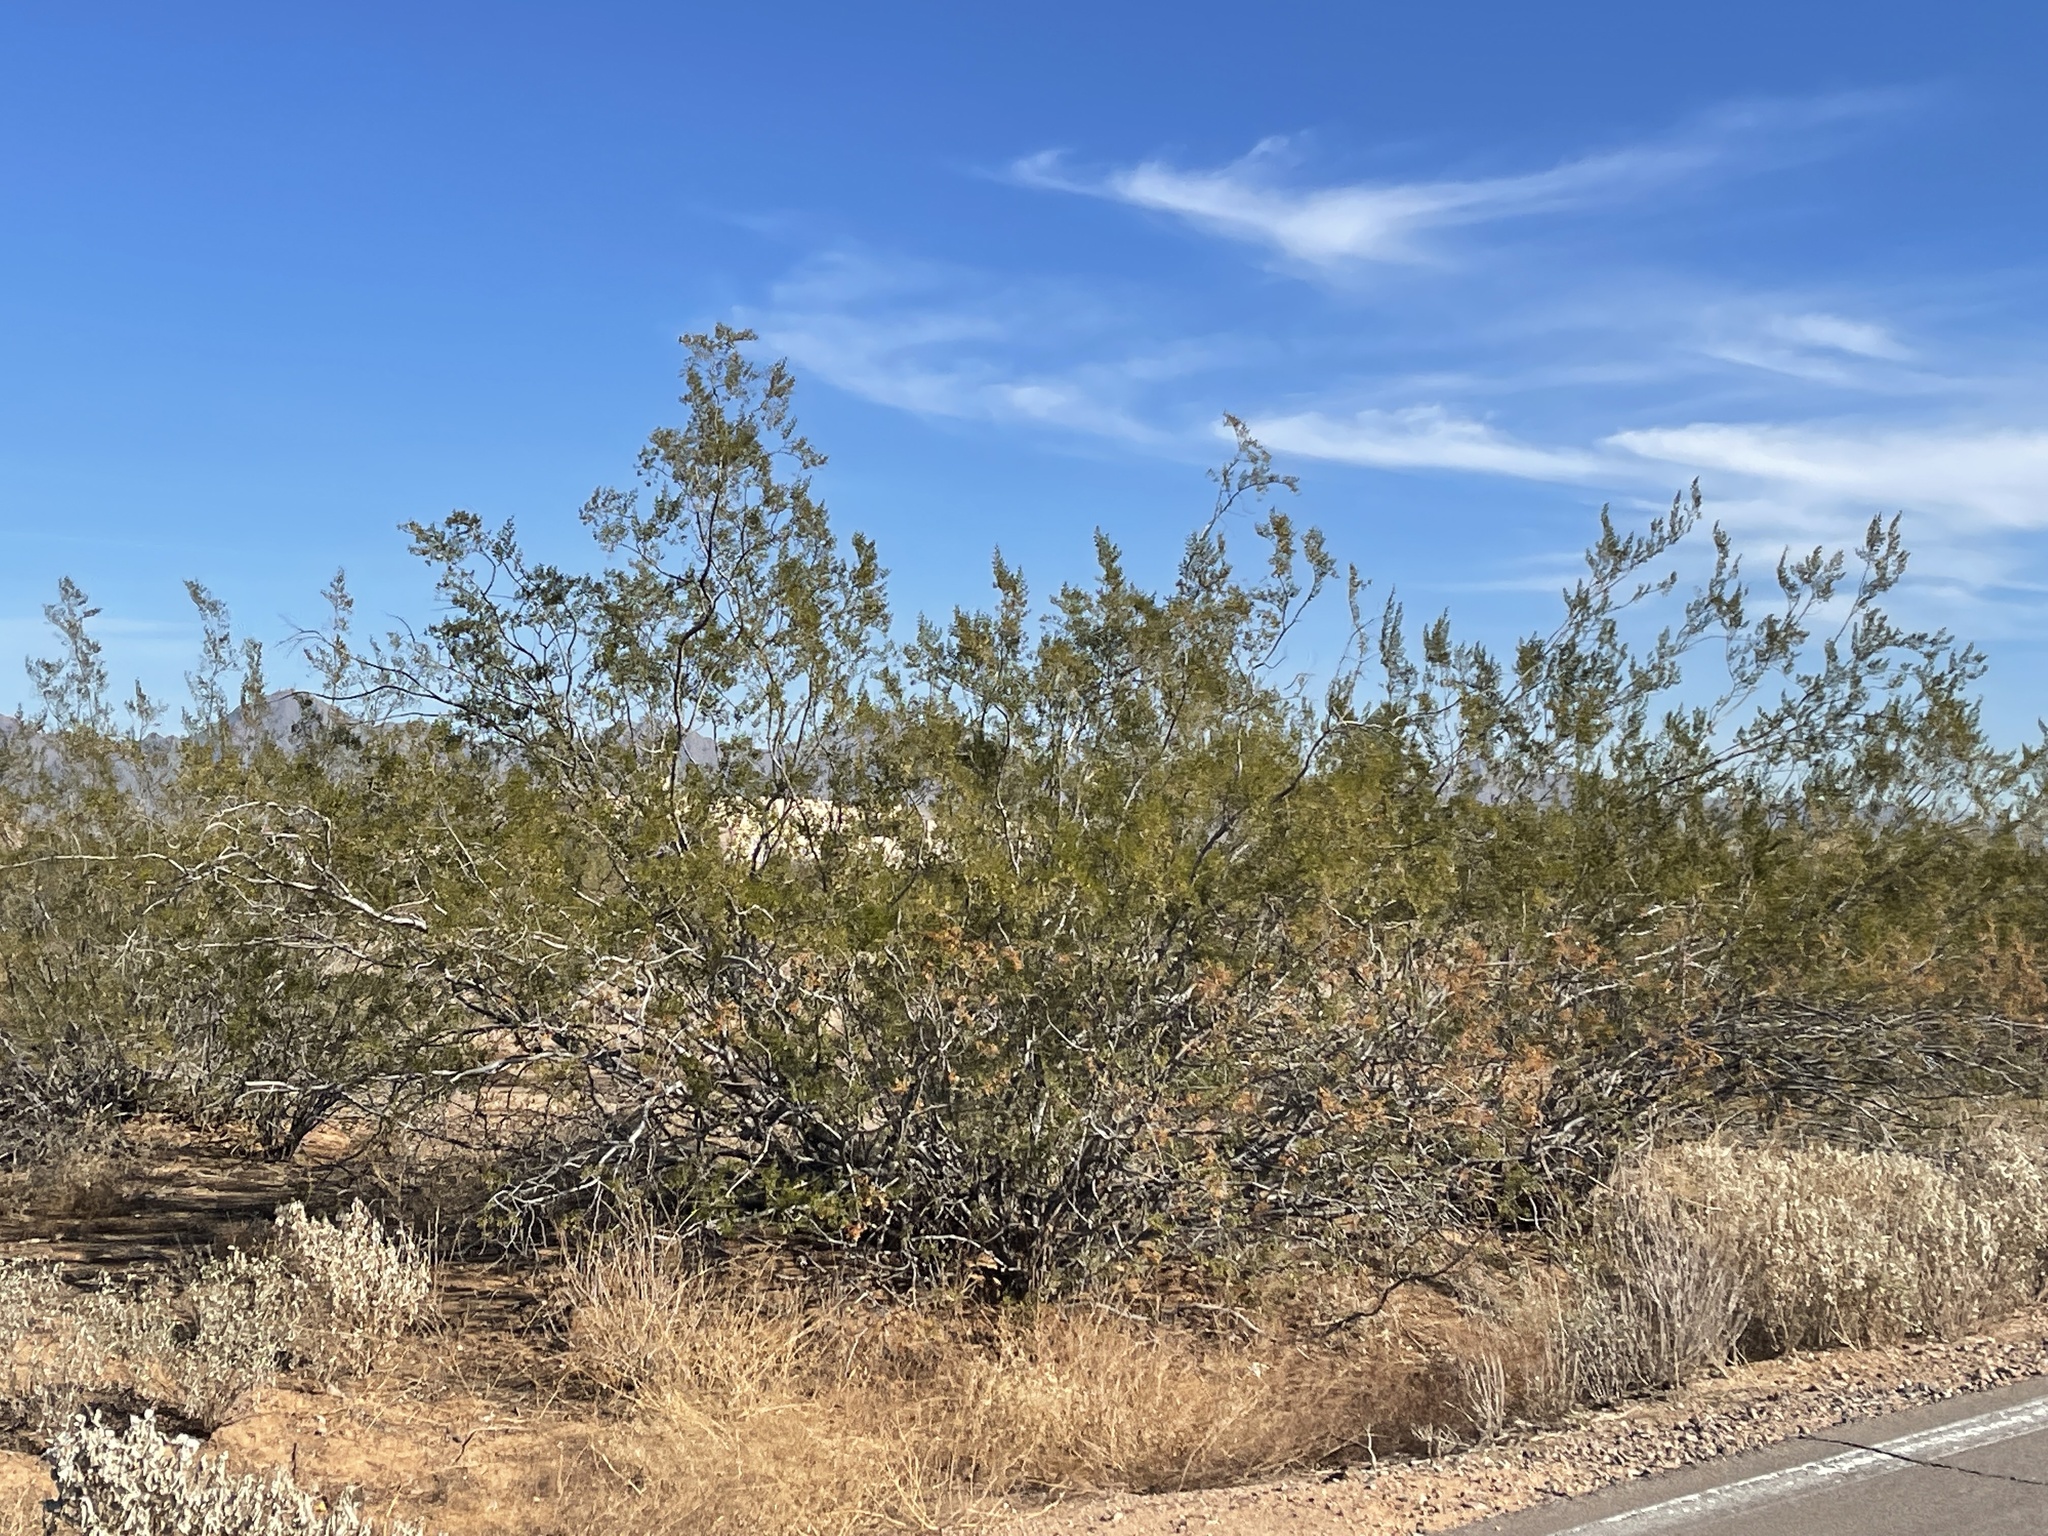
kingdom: Plantae
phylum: Tracheophyta
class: Magnoliopsida
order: Zygophyllales
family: Zygophyllaceae
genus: Larrea
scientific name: Larrea tridentata
